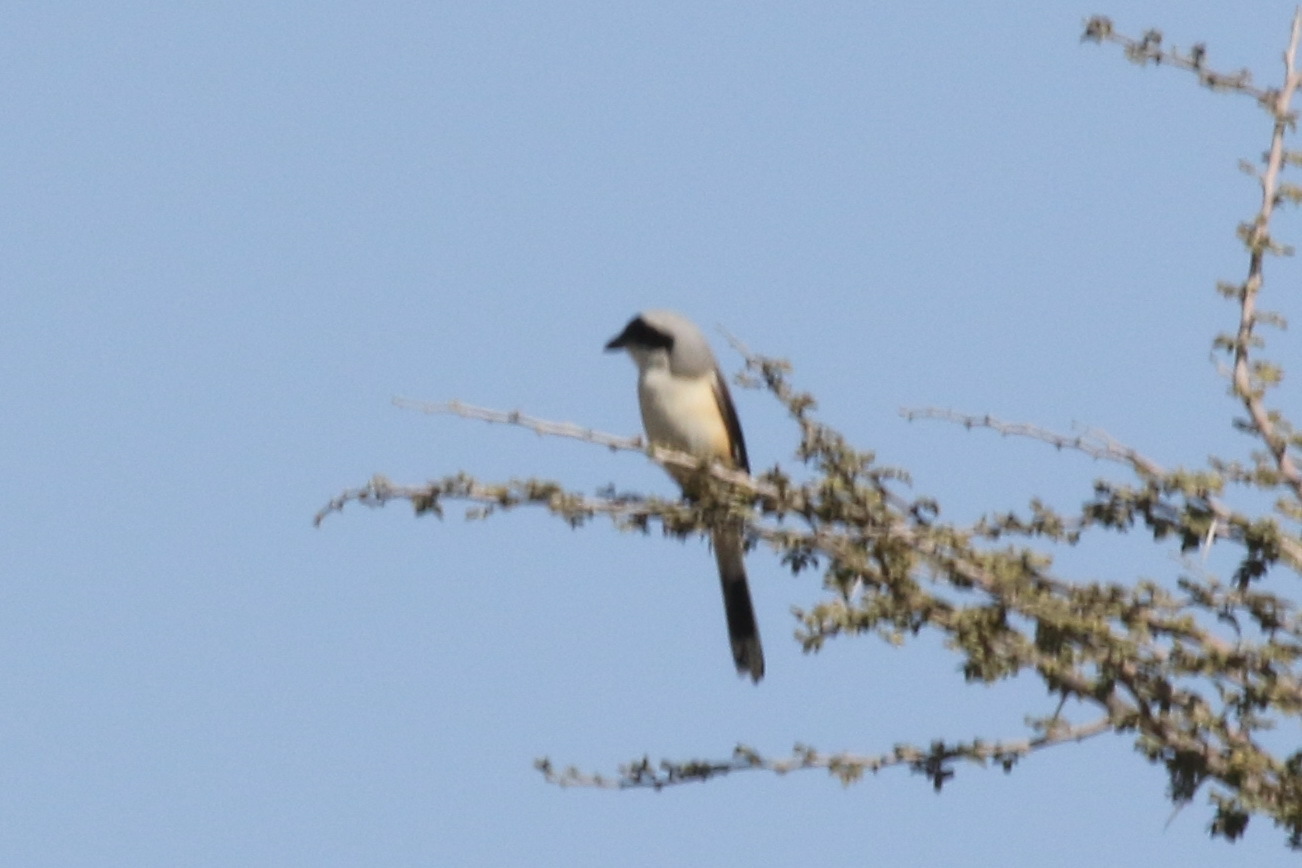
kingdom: Animalia
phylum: Chordata
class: Aves
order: Passeriformes
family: Laniidae
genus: Lanius
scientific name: Lanius vittatus
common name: Bay-backed shrike
